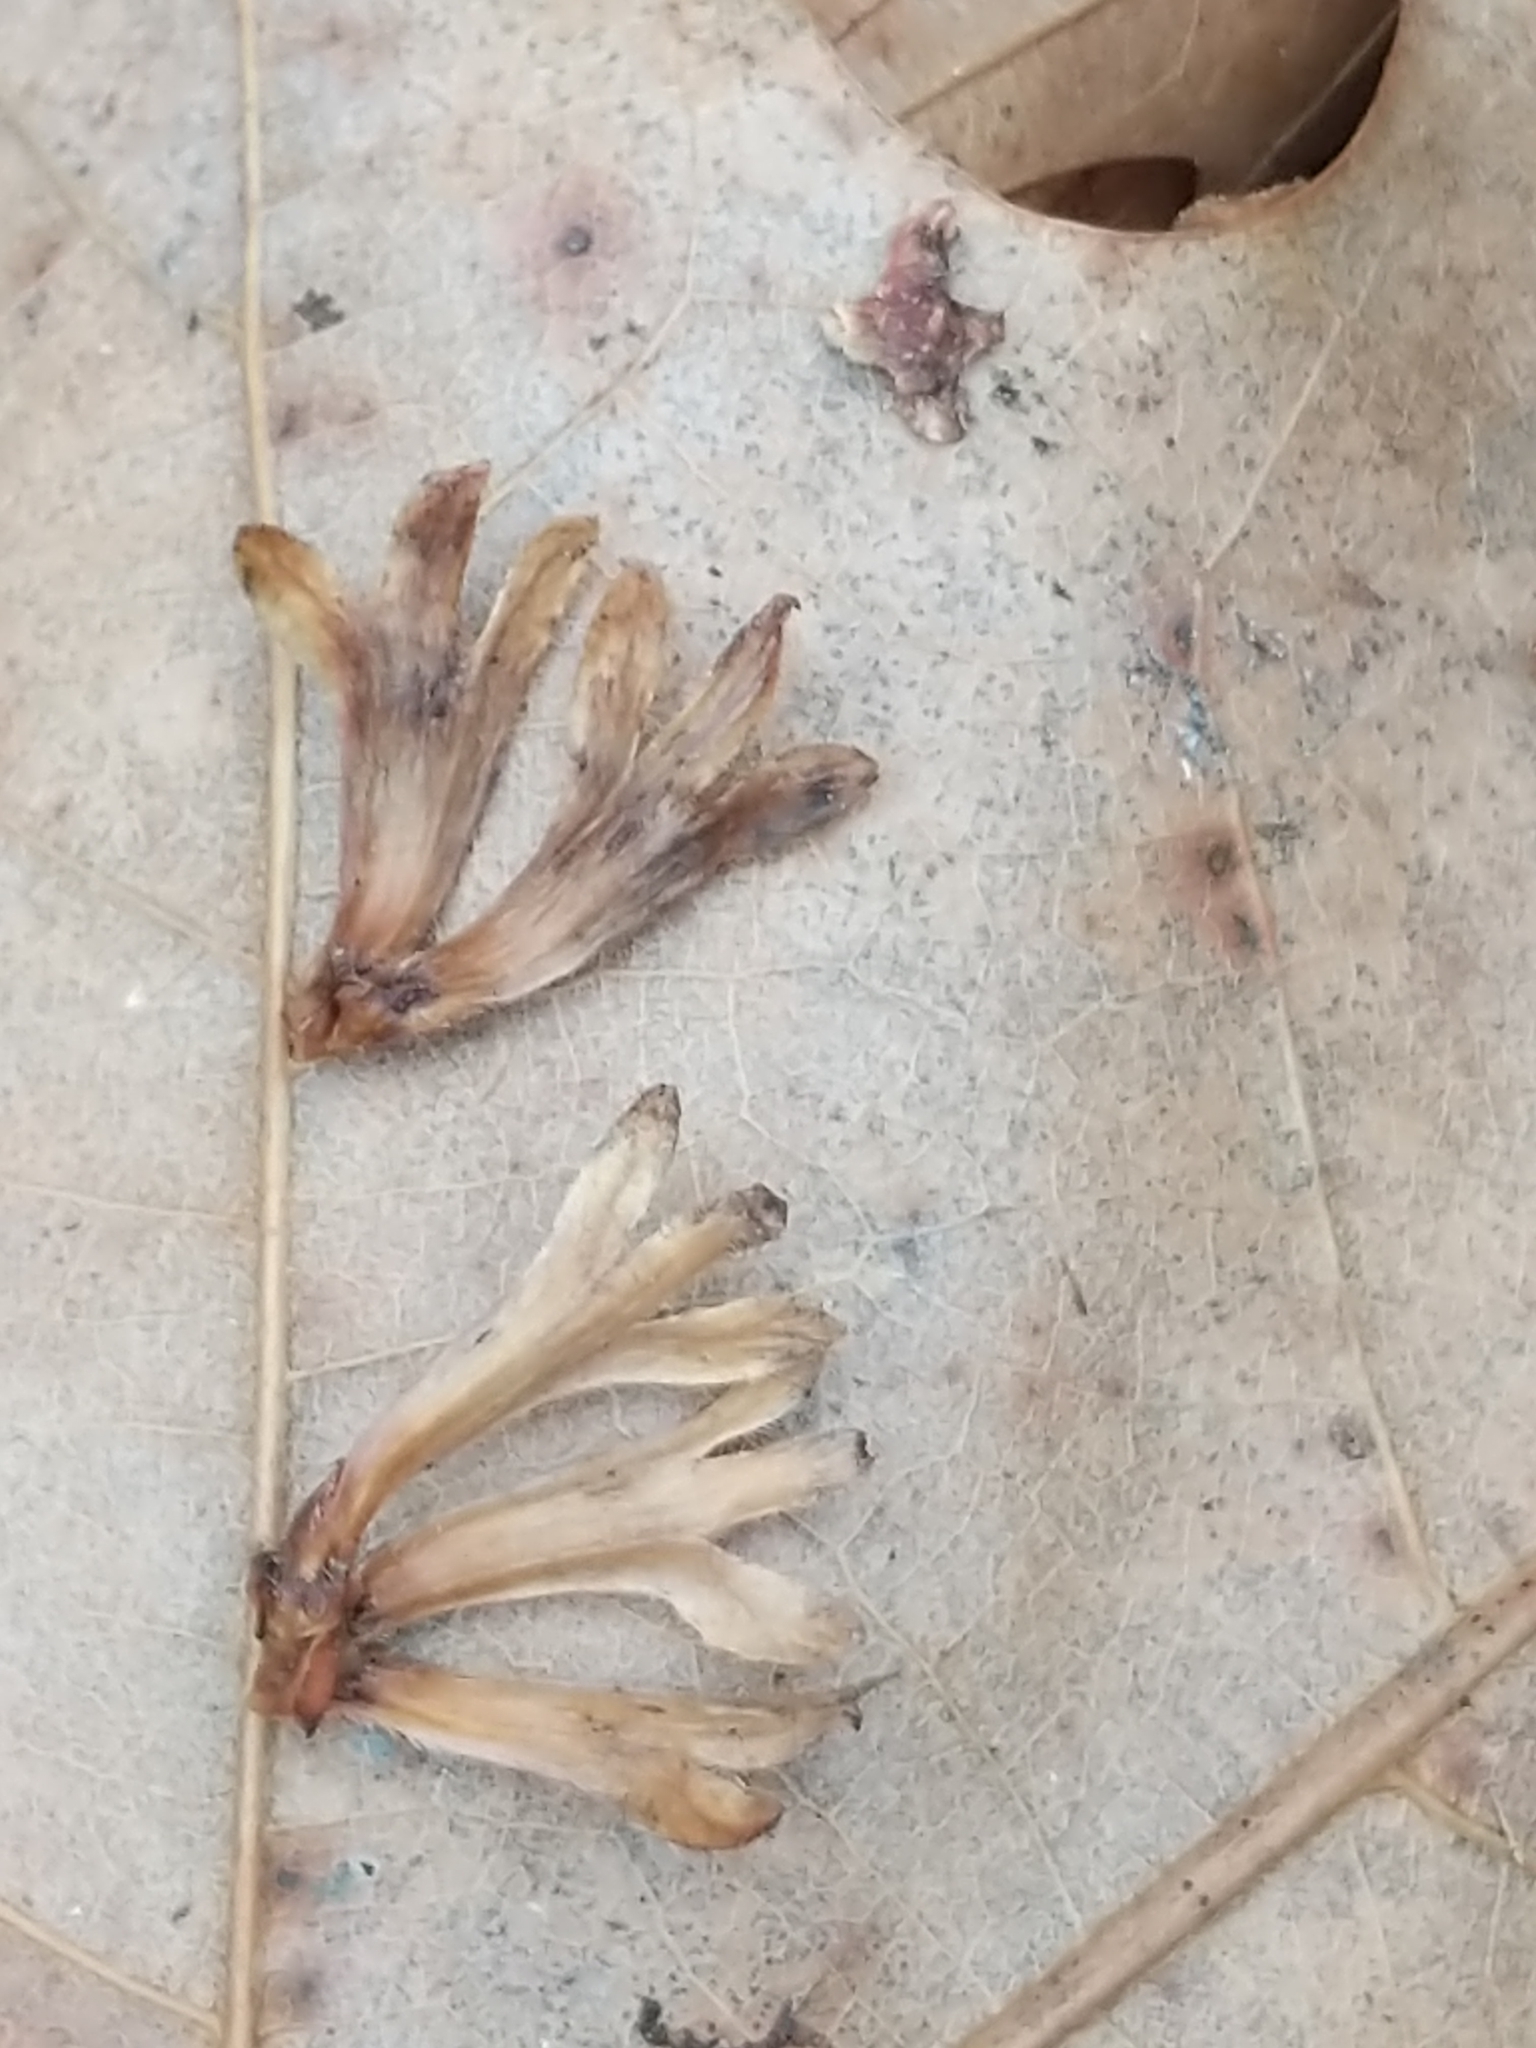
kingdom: Plantae
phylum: Tracheophyta
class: Magnoliopsida
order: Fagales
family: Betulaceae
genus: Betula
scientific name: Betula alleghaniensis
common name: Yellow birch
